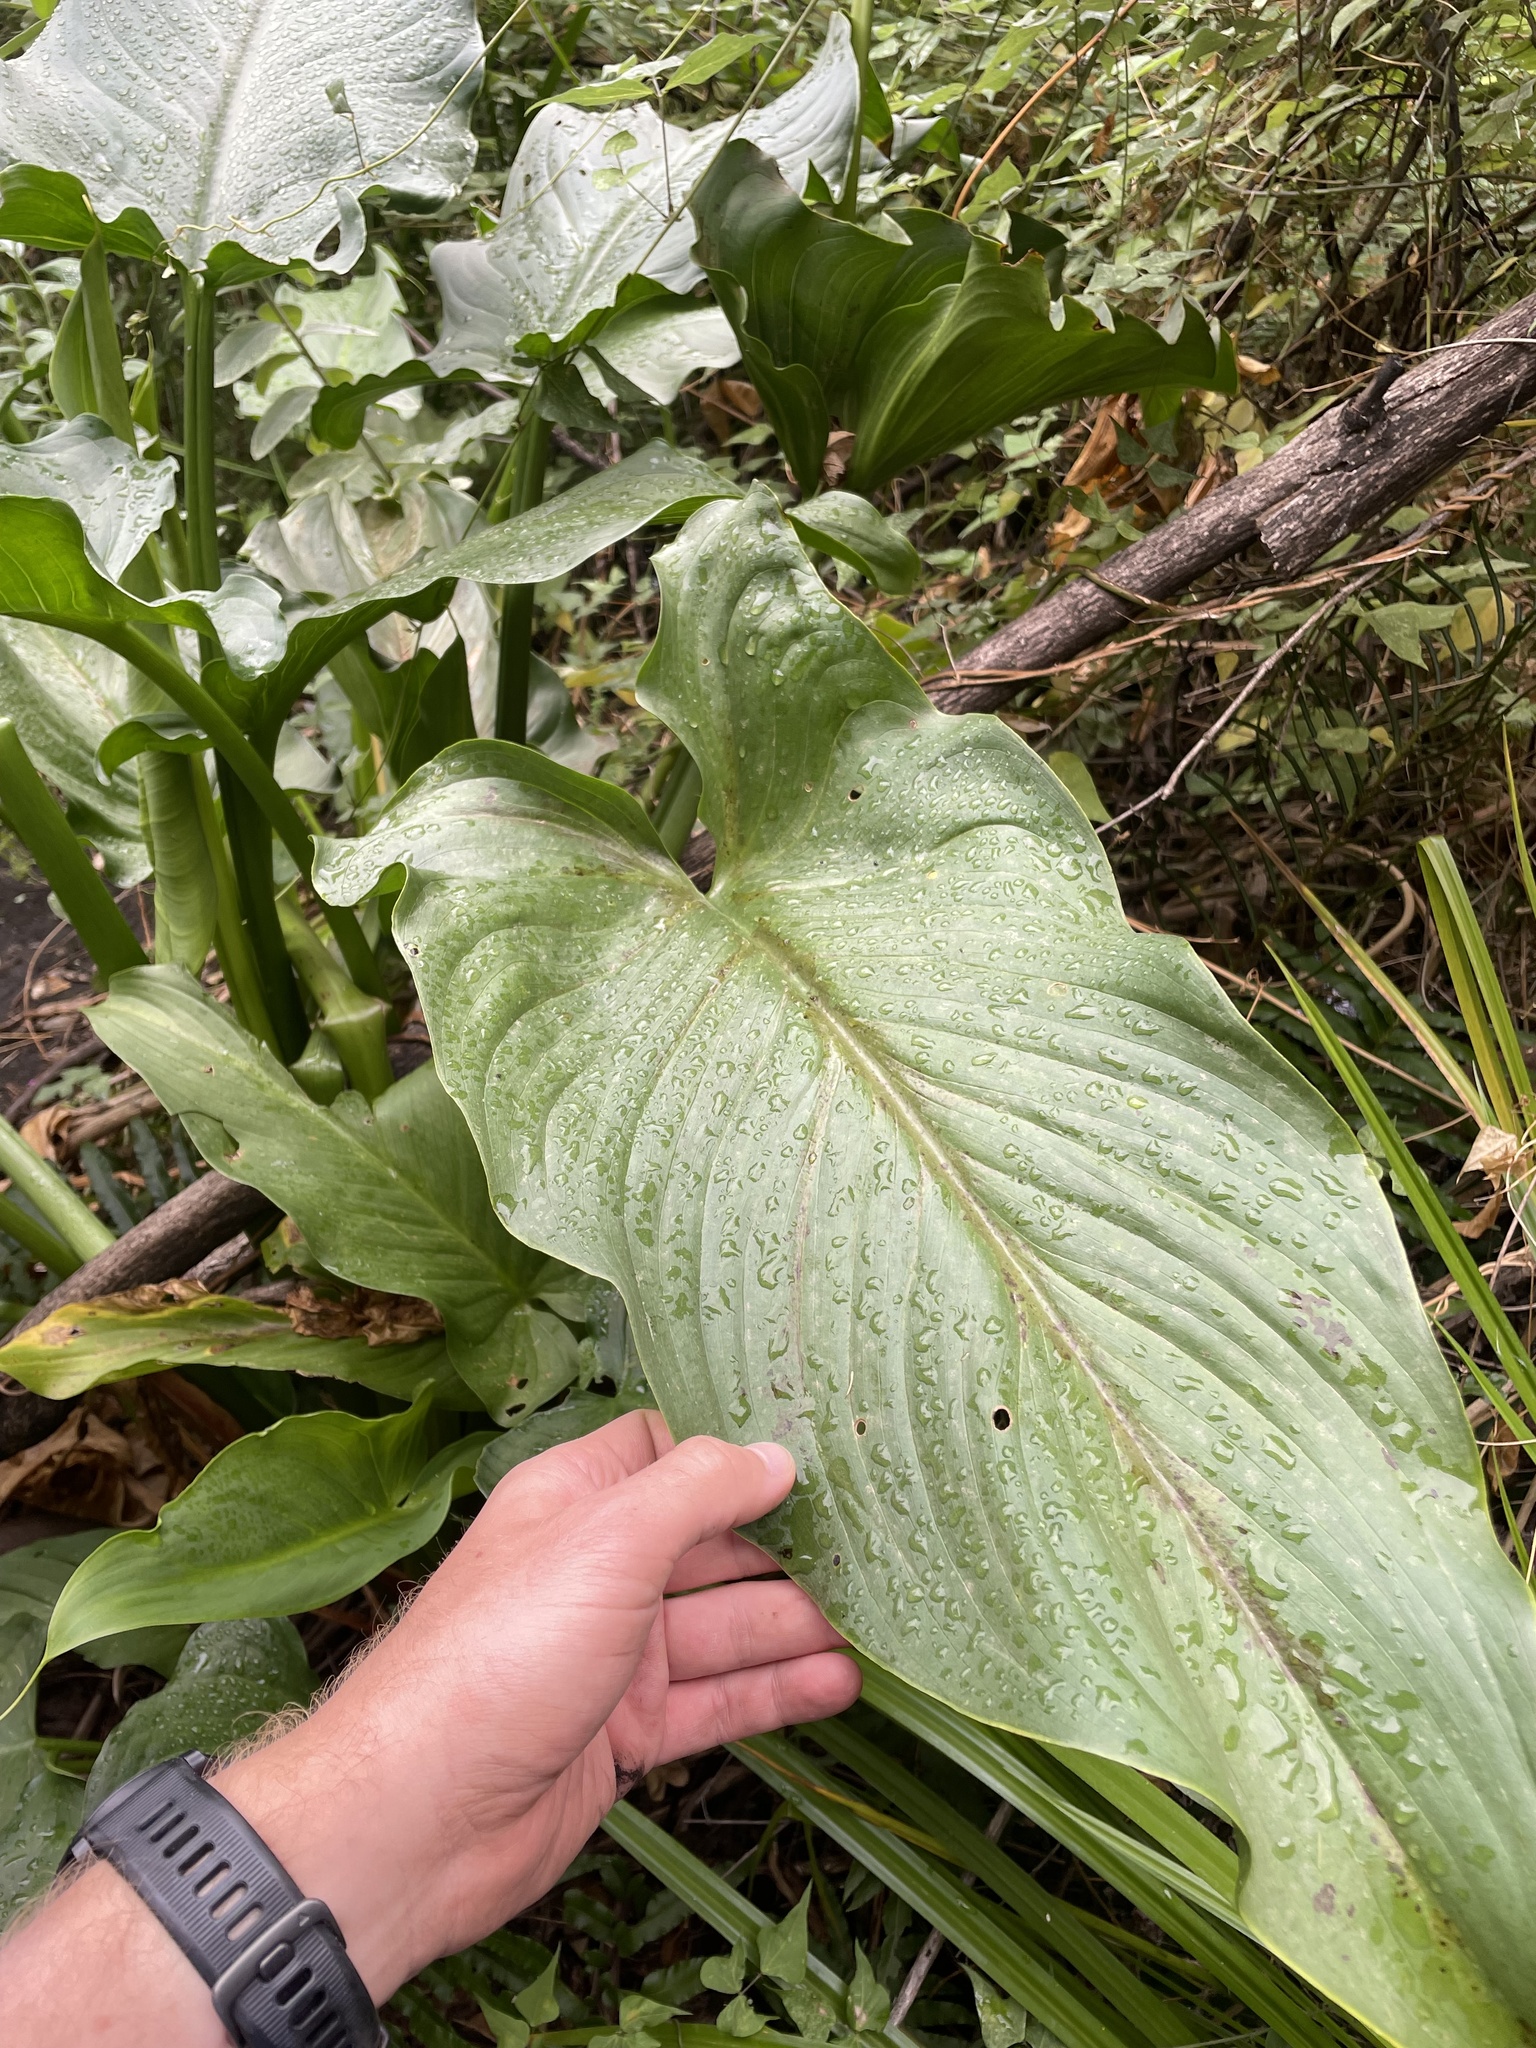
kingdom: Plantae
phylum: Tracheophyta
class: Liliopsida
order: Alismatales
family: Araceae
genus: Zantedeschia
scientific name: Zantedeschia aethiopica
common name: Altar-lily
